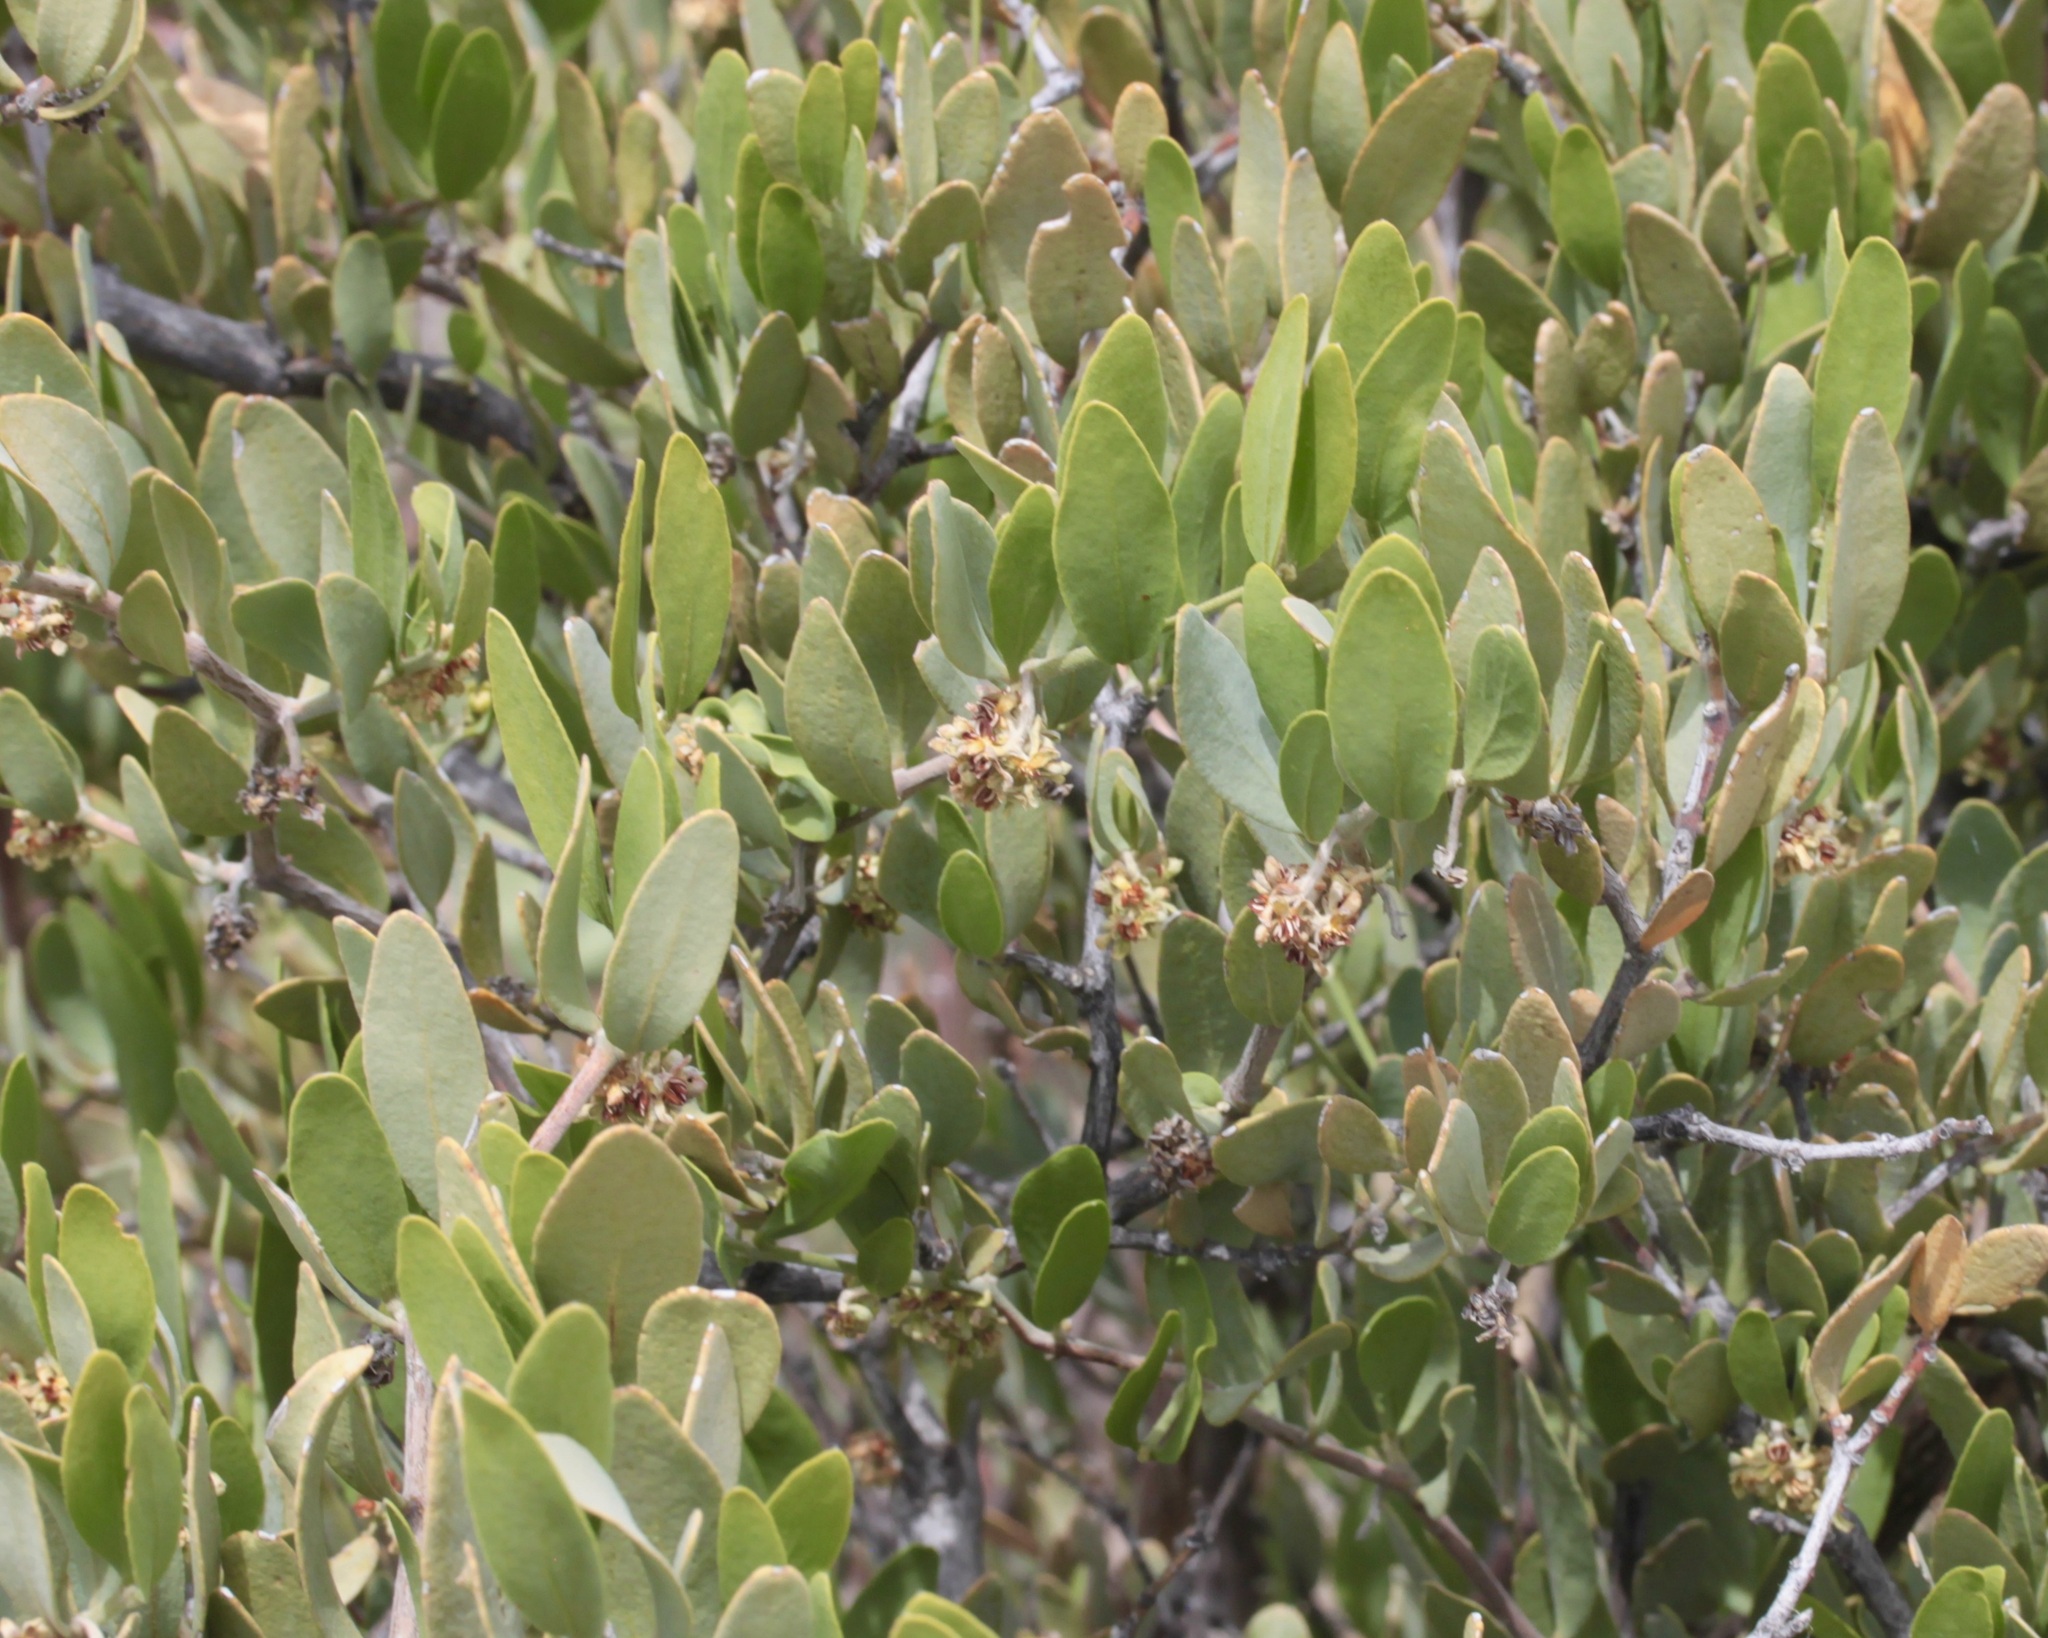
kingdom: Plantae
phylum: Tracheophyta
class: Magnoliopsida
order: Caryophyllales
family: Simmondsiaceae
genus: Simmondsia
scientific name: Simmondsia chinensis
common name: Jojoba
